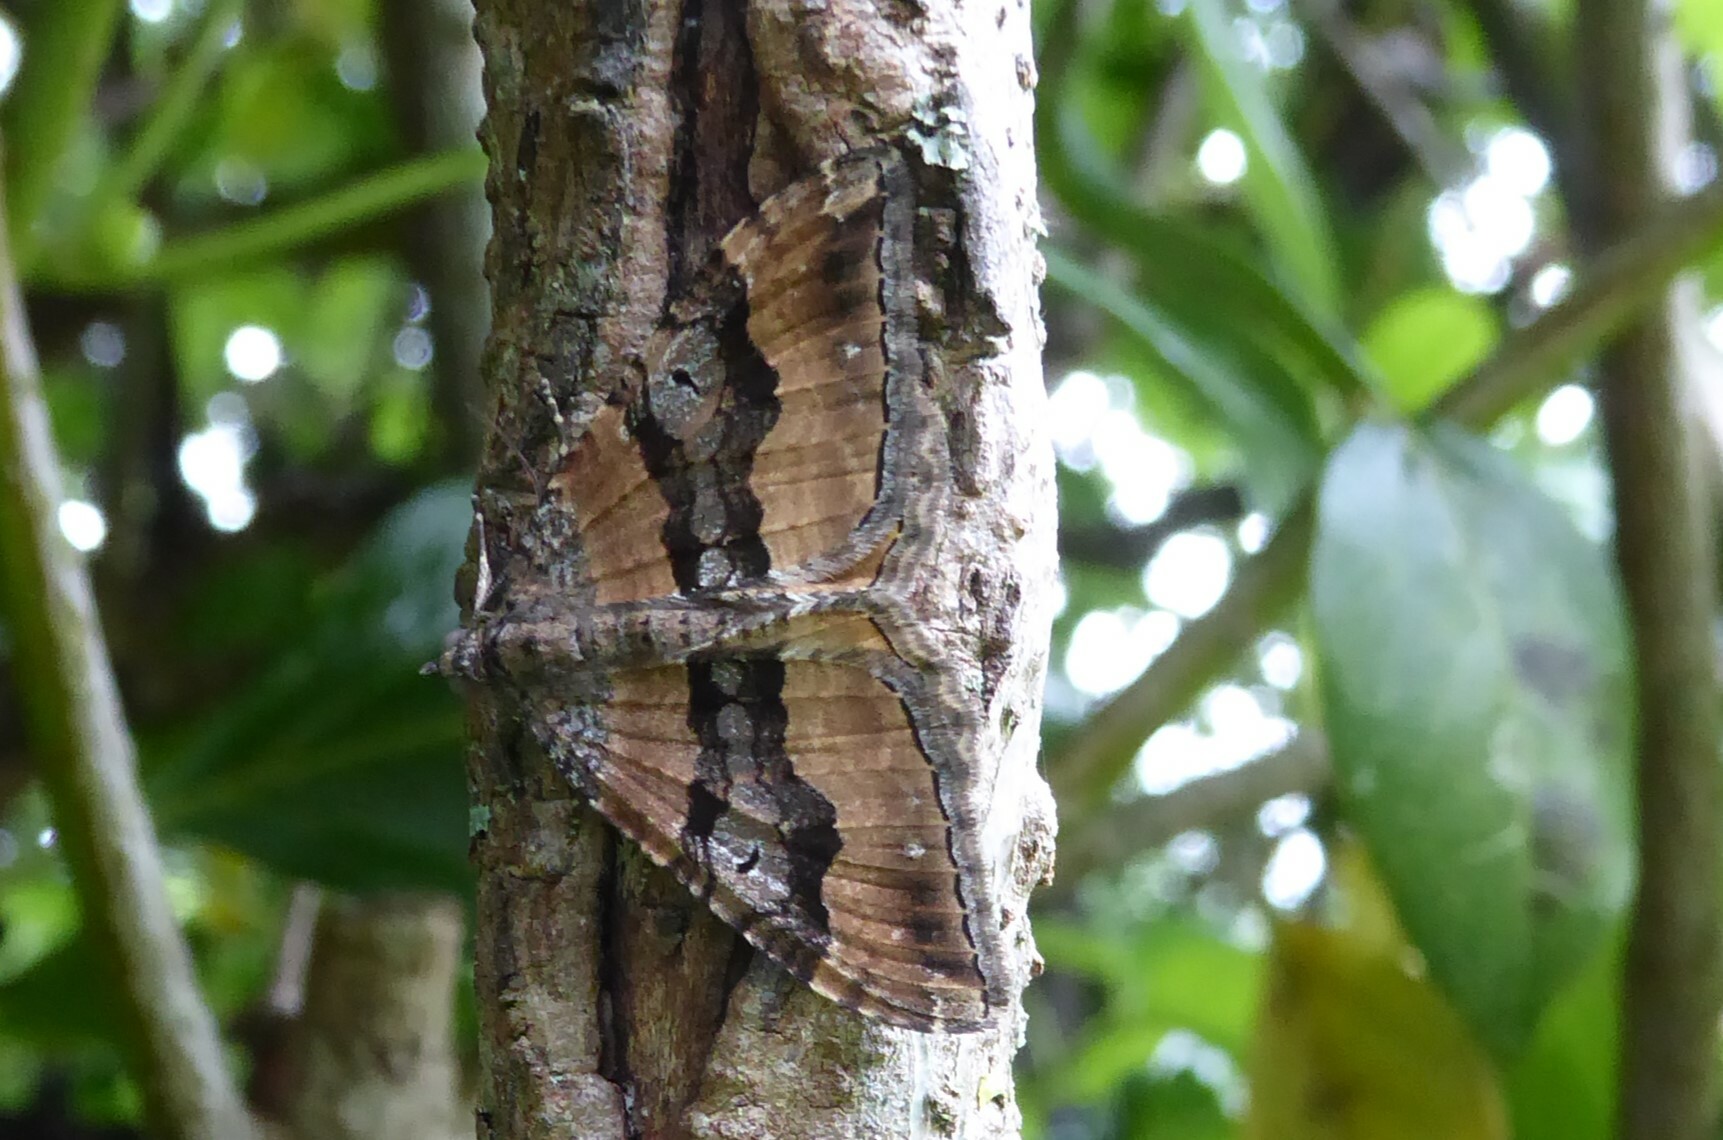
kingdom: Animalia
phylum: Arthropoda
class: Insecta
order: Lepidoptera
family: Geometridae
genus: Hydriomena
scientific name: Hydriomena deltoidata
